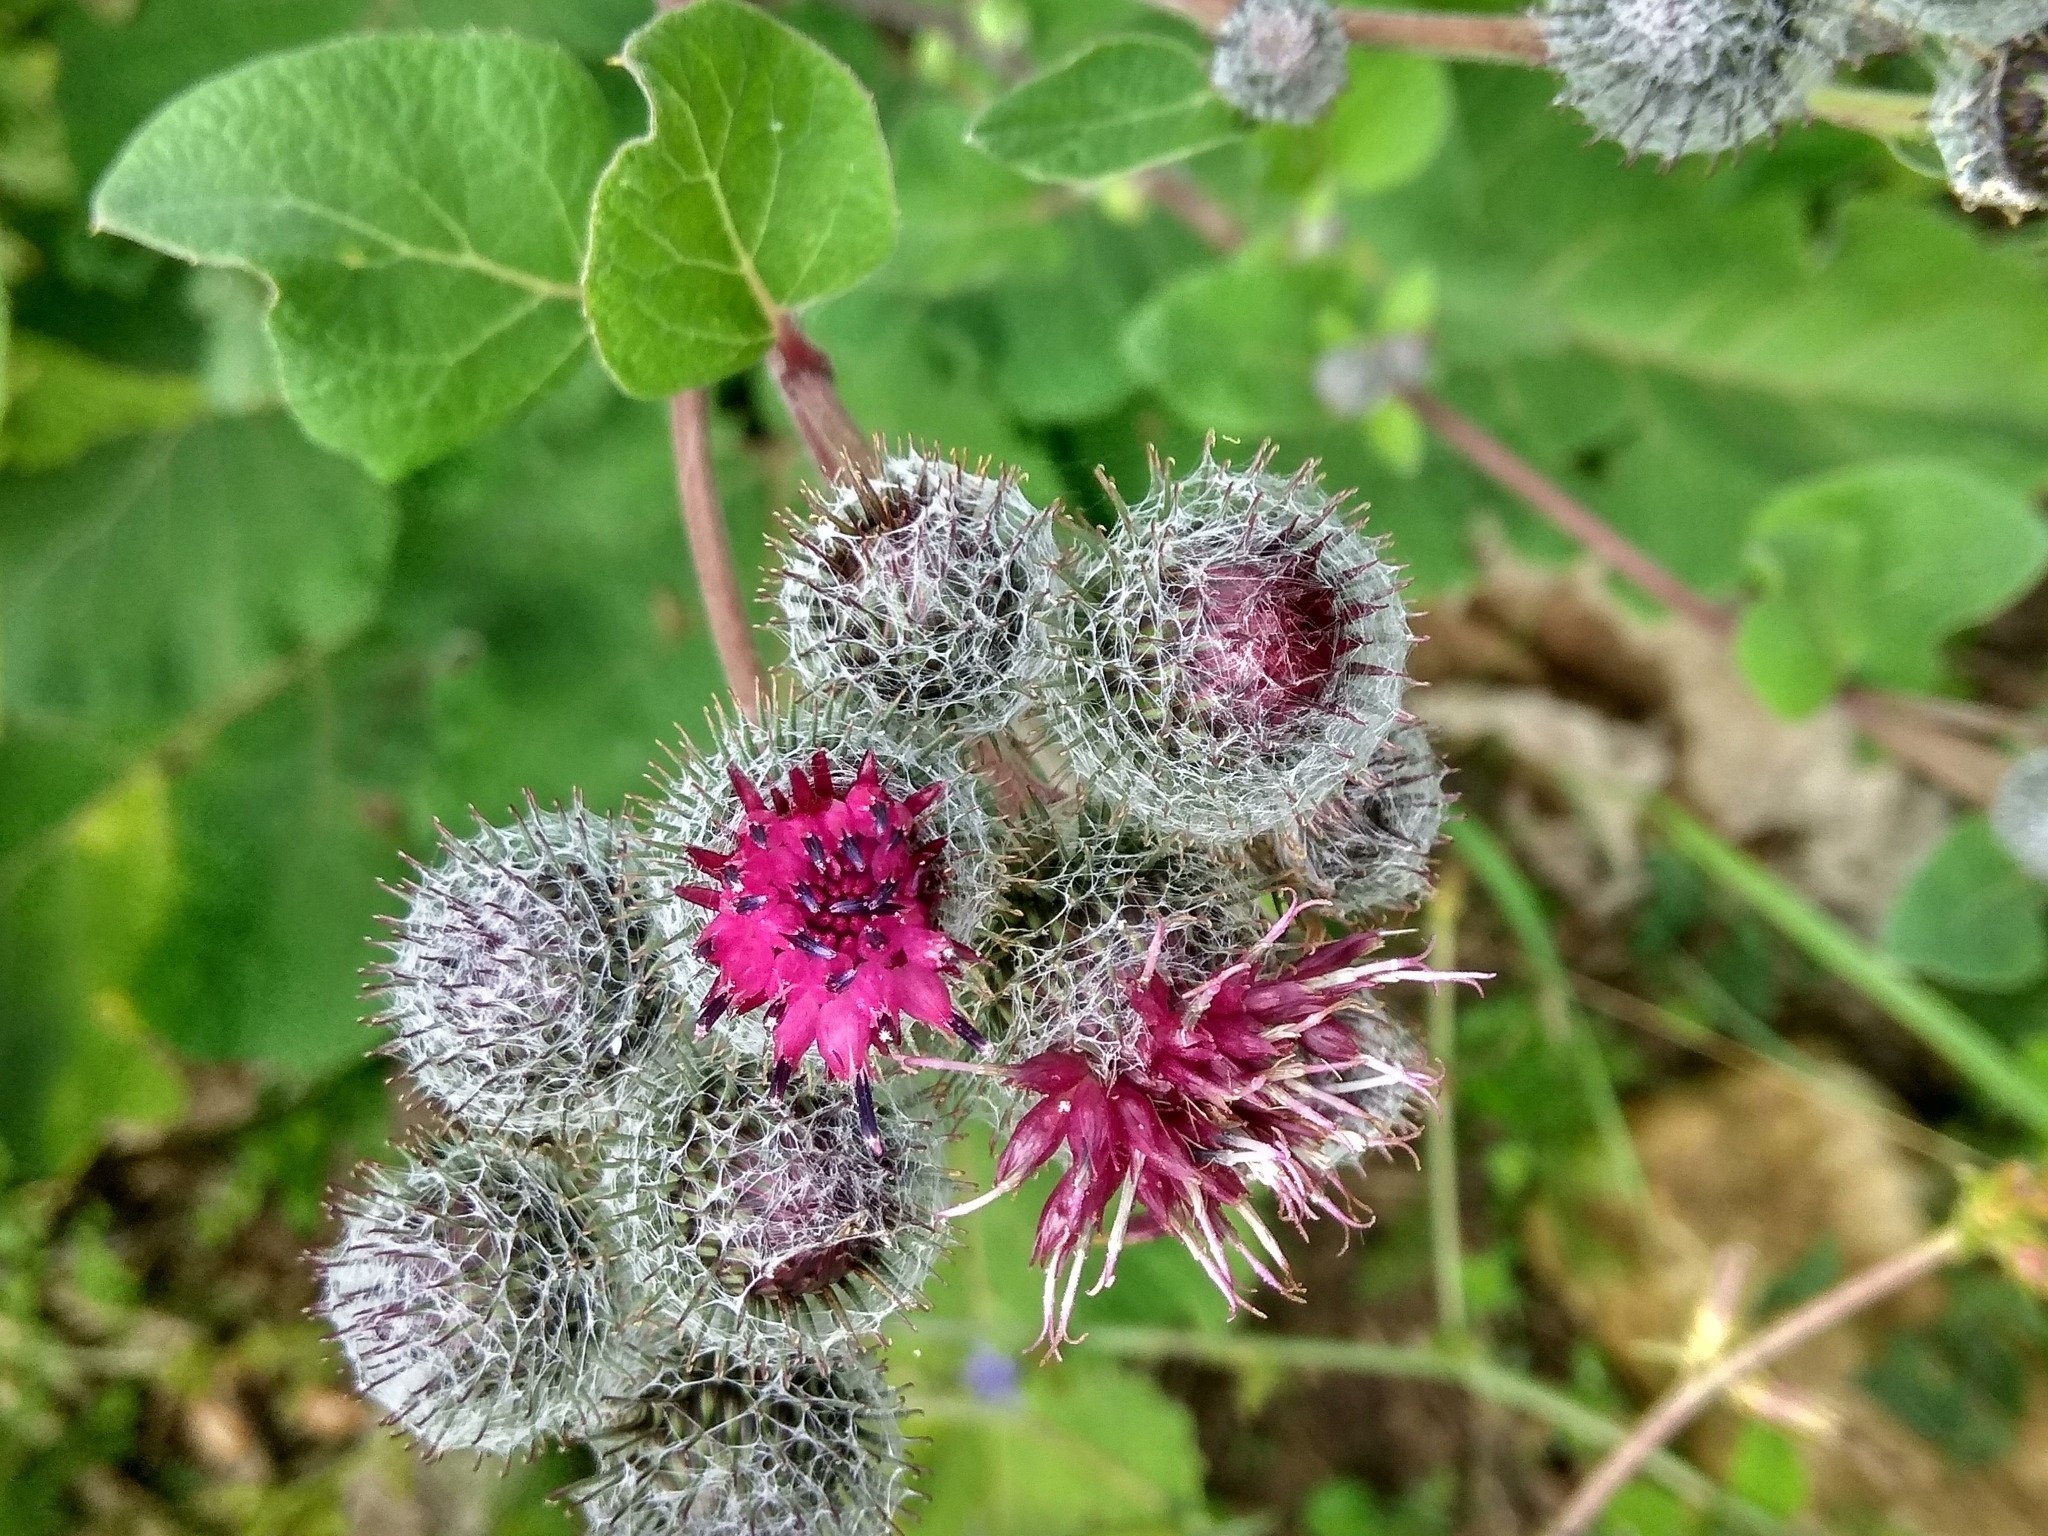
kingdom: Plantae
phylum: Tracheophyta
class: Magnoliopsida
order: Asterales
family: Asteraceae
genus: Arctium
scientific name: Arctium tomentosum
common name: Woolly burdock
